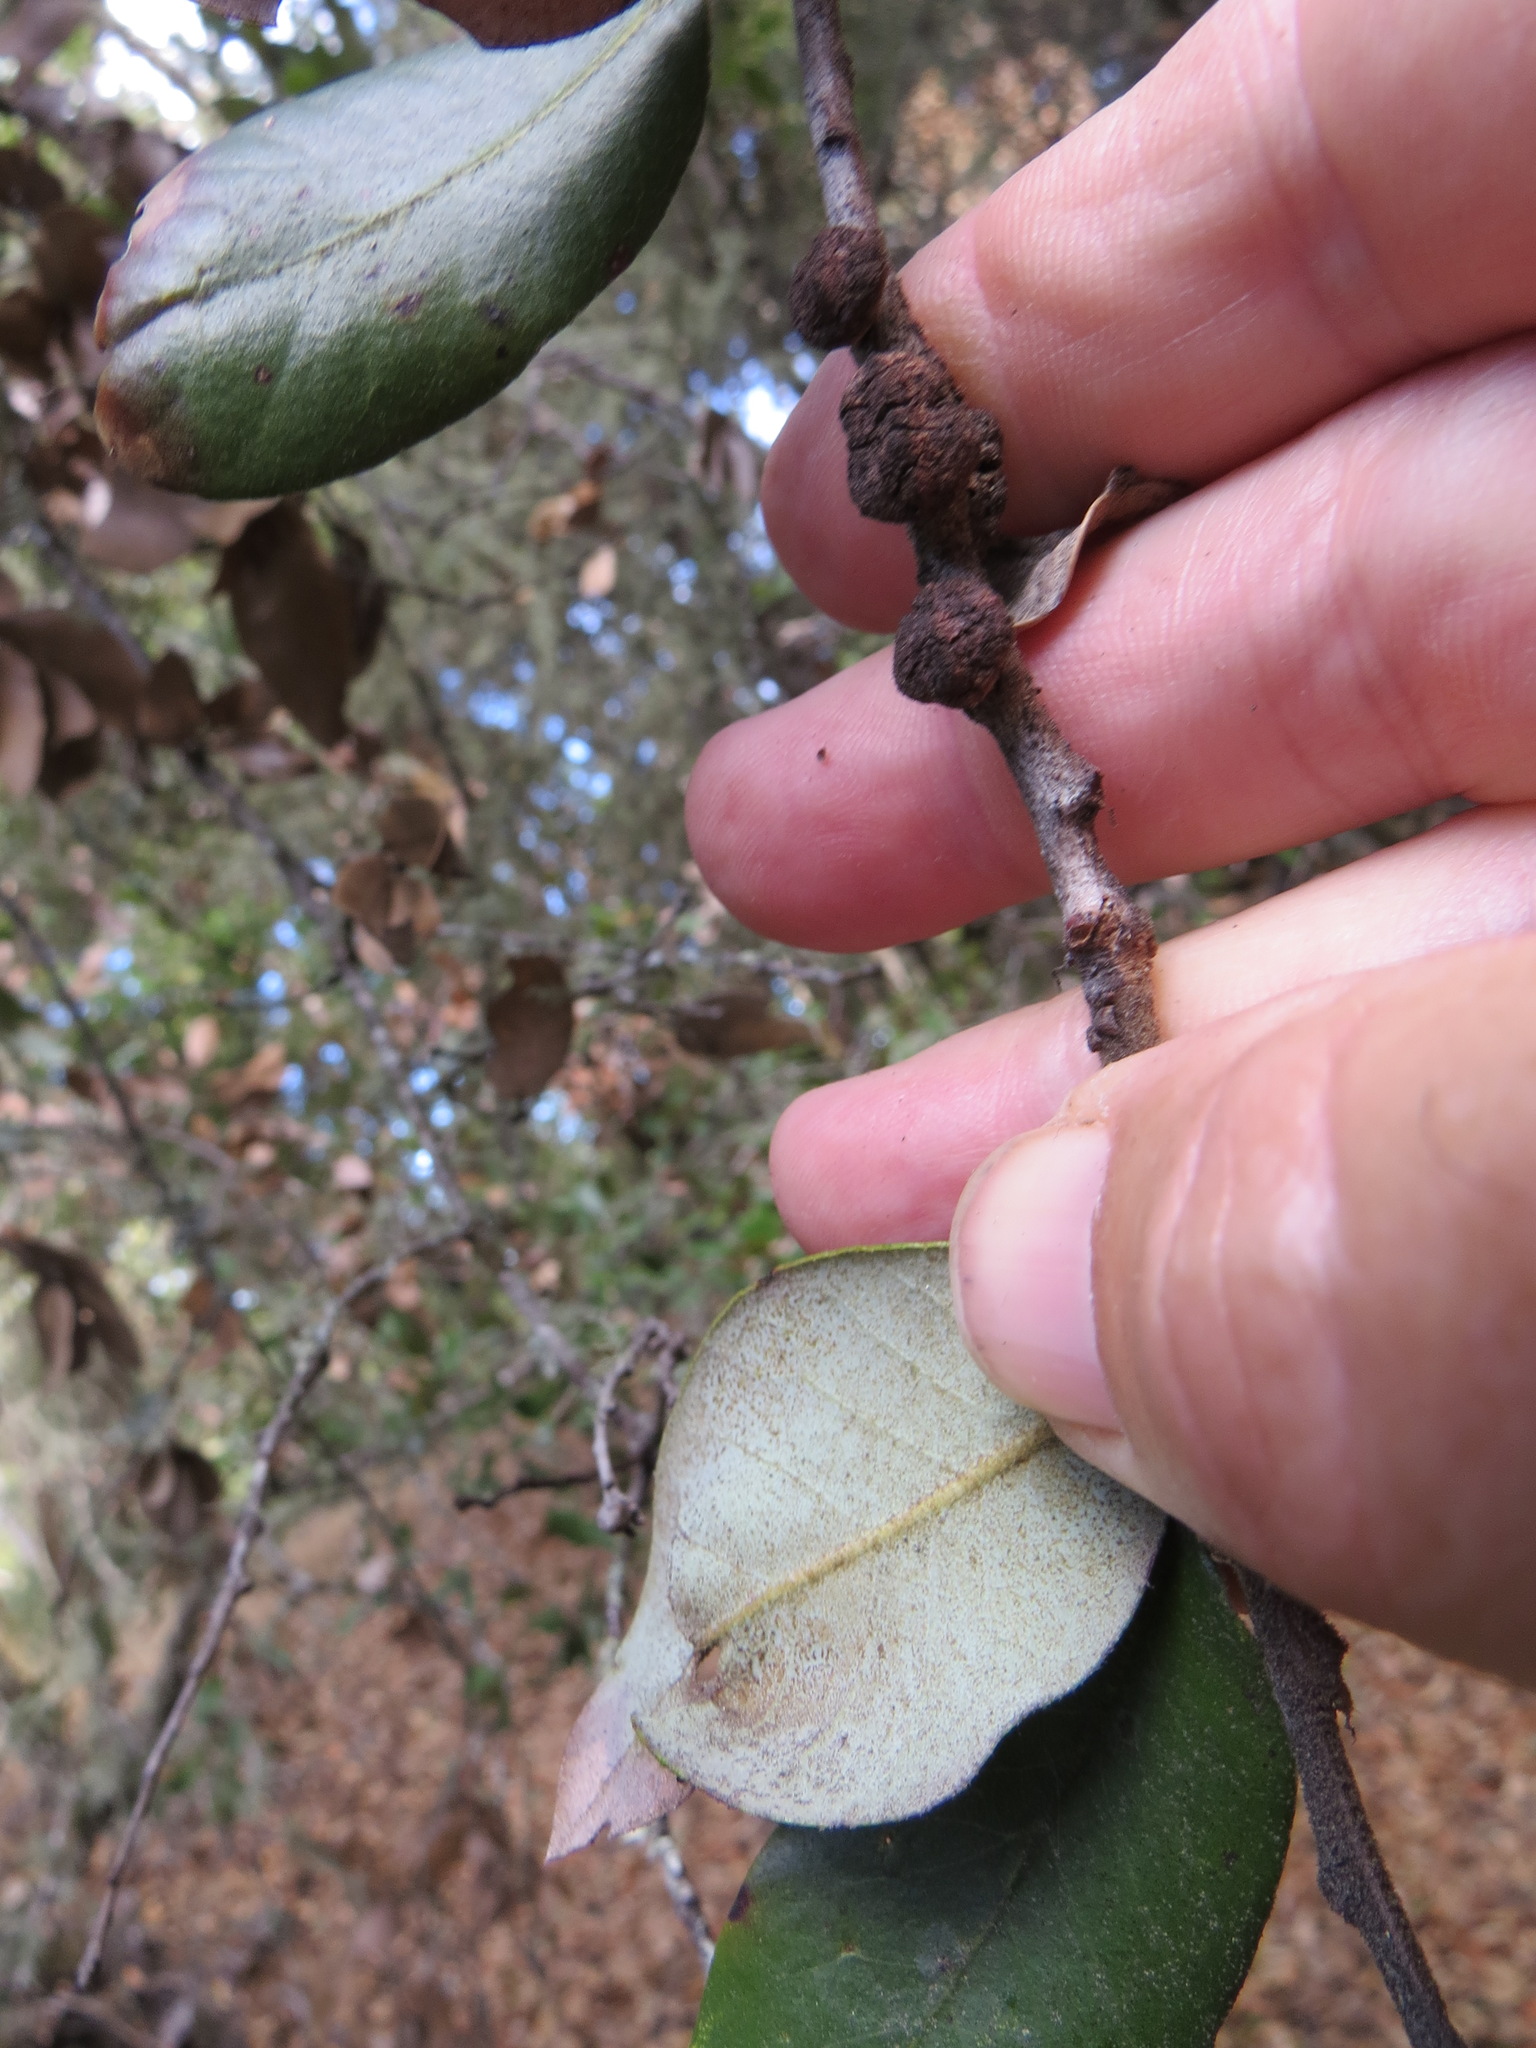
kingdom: Animalia
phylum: Arthropoda
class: Insecta
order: Hymenoptera
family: Cynipidae
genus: Disholandricus
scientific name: Disholandricus
